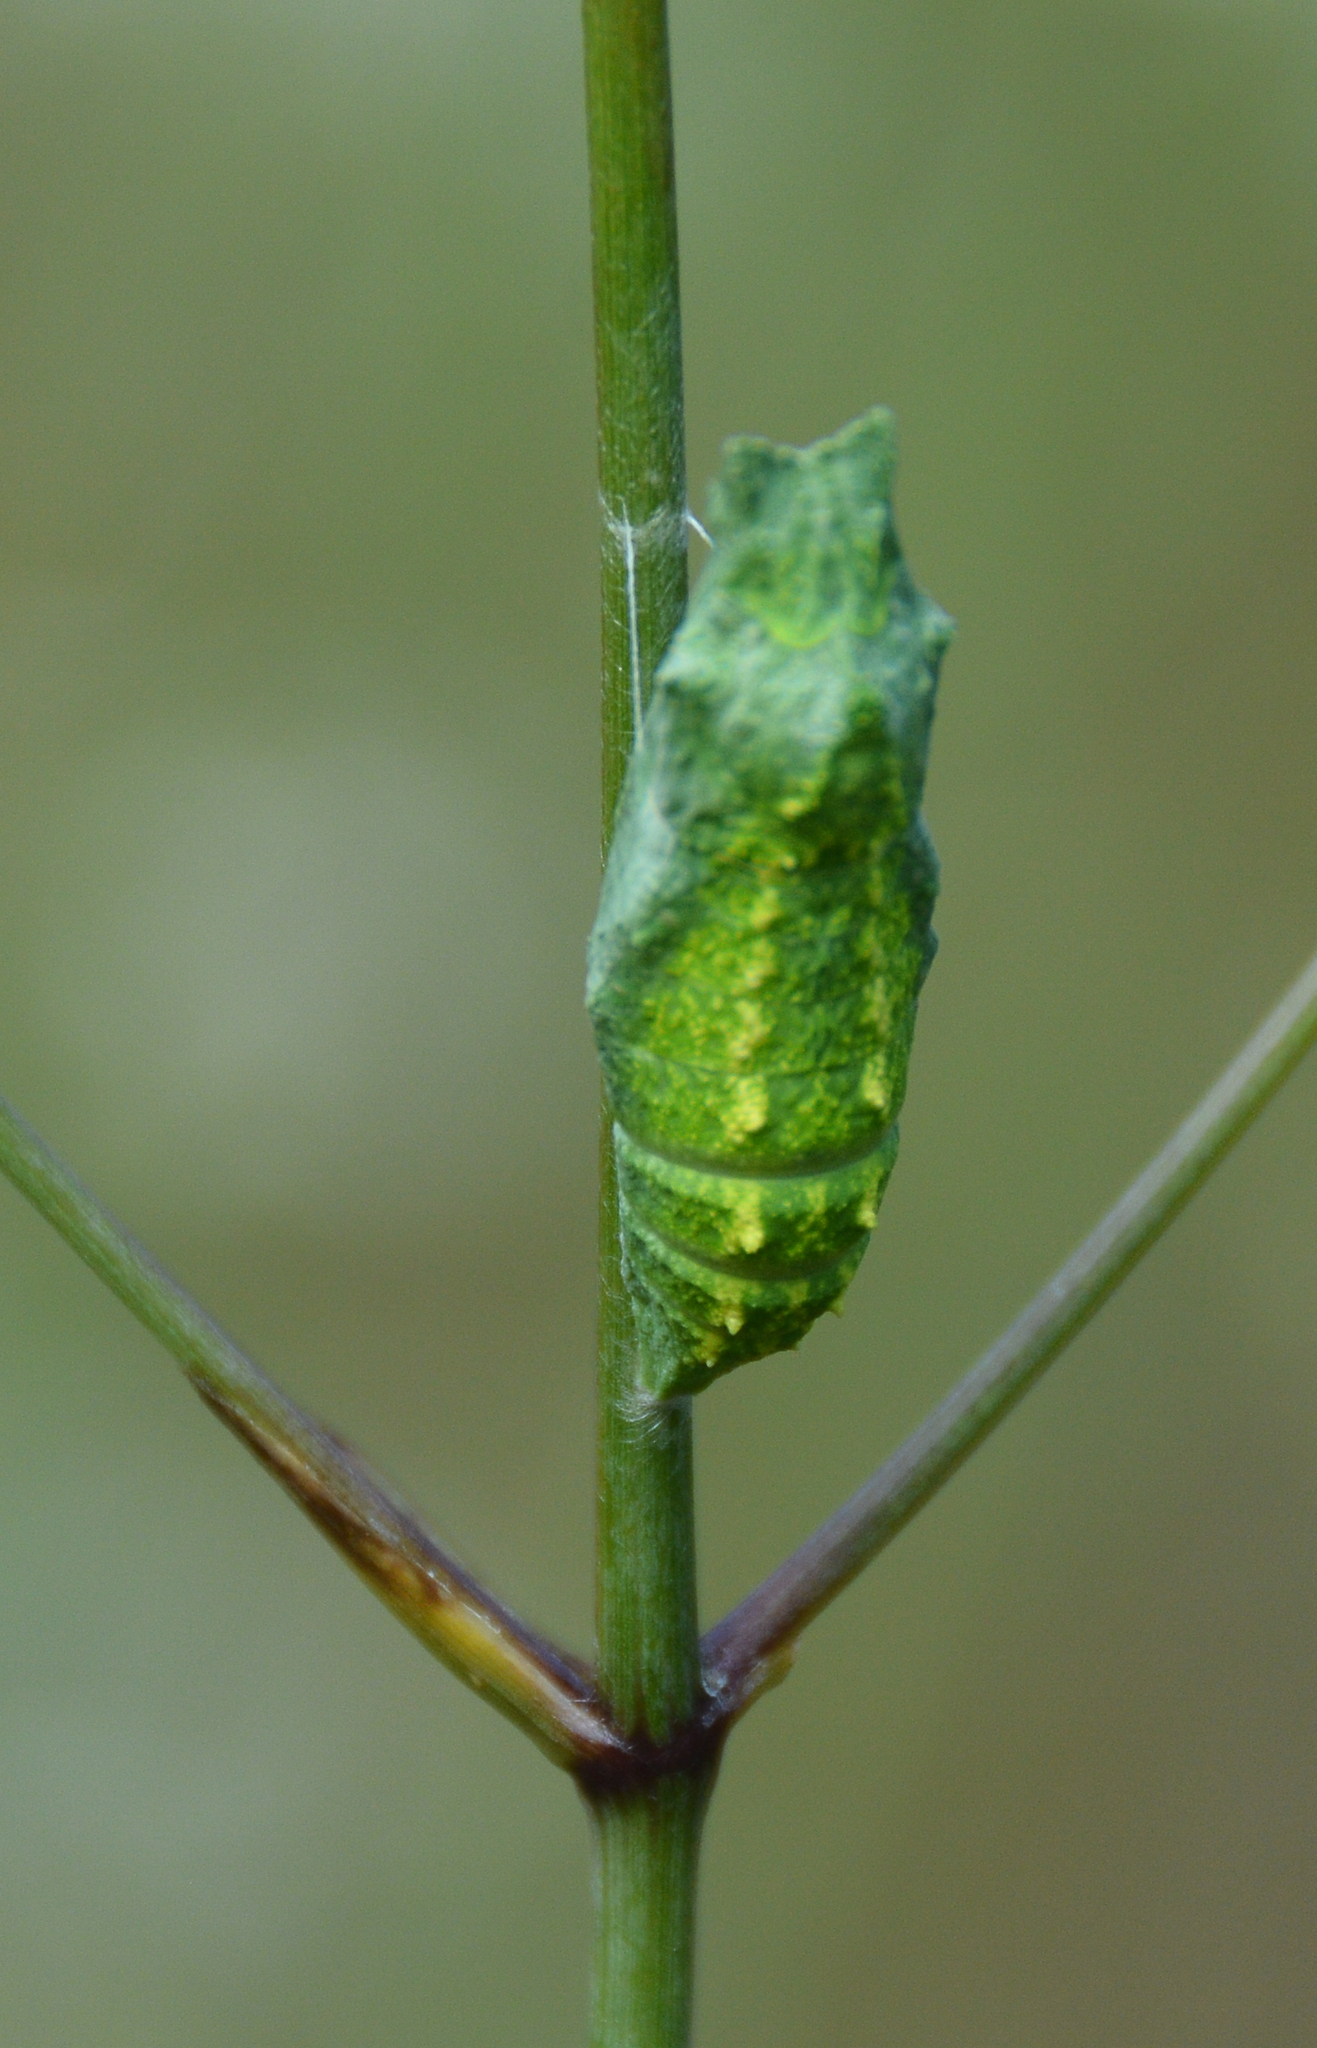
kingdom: Animalia
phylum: Arthropoda
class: Insecta
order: Lepidoptera
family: Papilionidae
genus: Papilio
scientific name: Papilio polyxenes
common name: Black swallowtail
